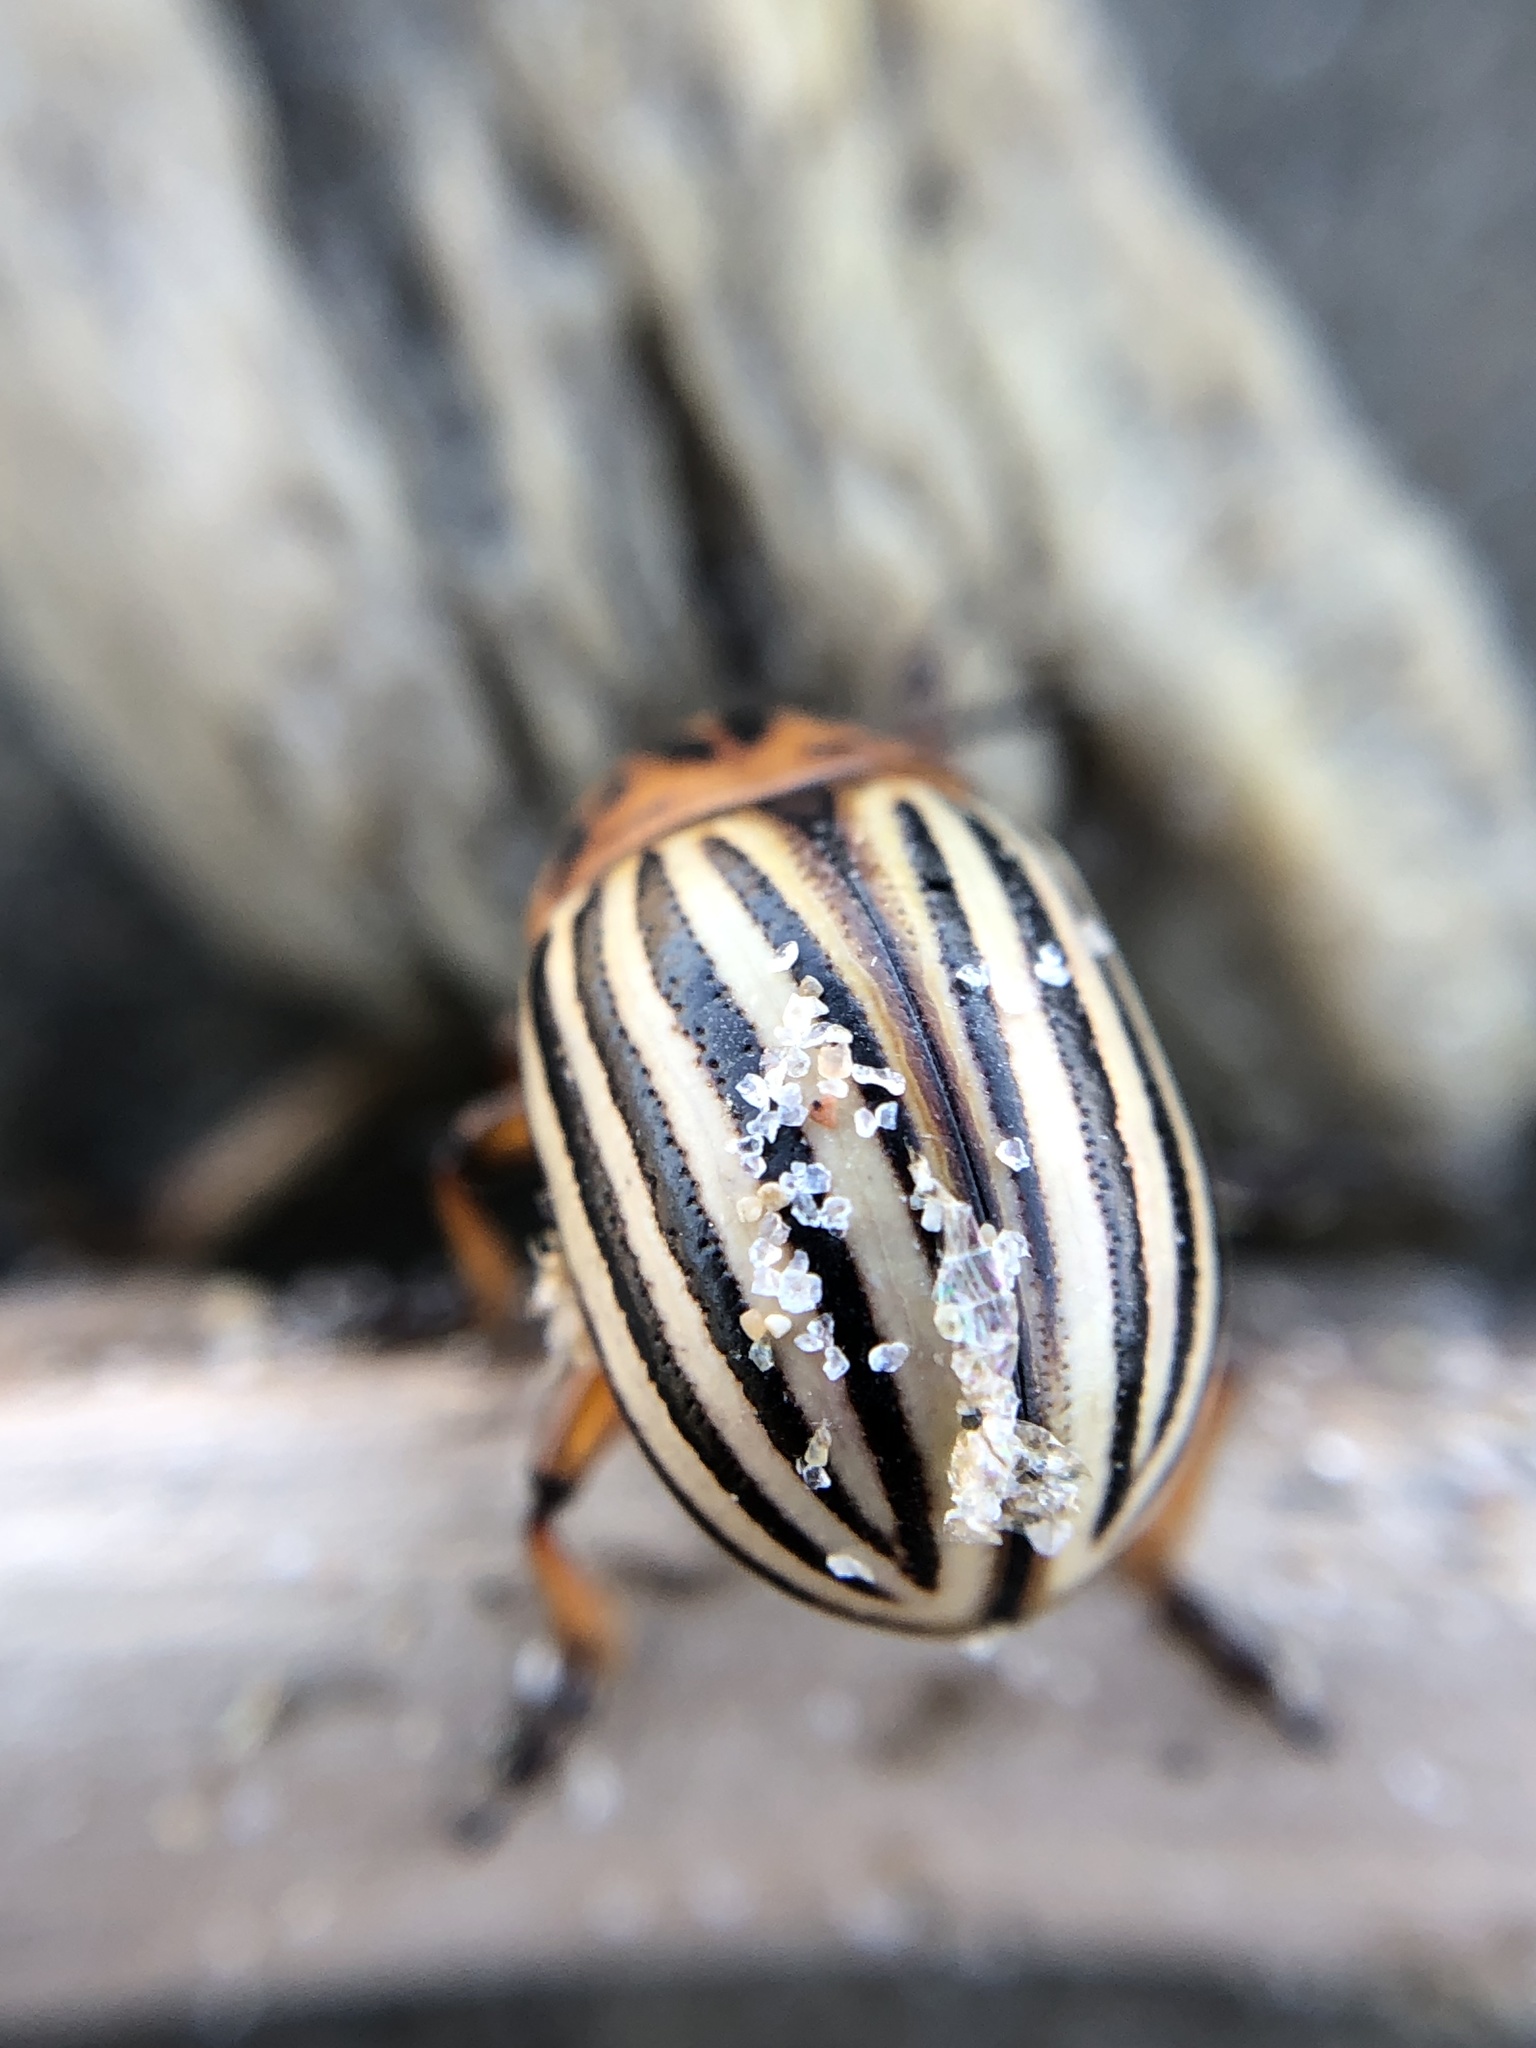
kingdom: Animalia
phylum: Arthropoda
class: Insecta
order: Coleoptera
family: Chrysomelidae
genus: Leptinotarsa
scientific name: Leptinotarsa decemlineata
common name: Colorado potato beetle
